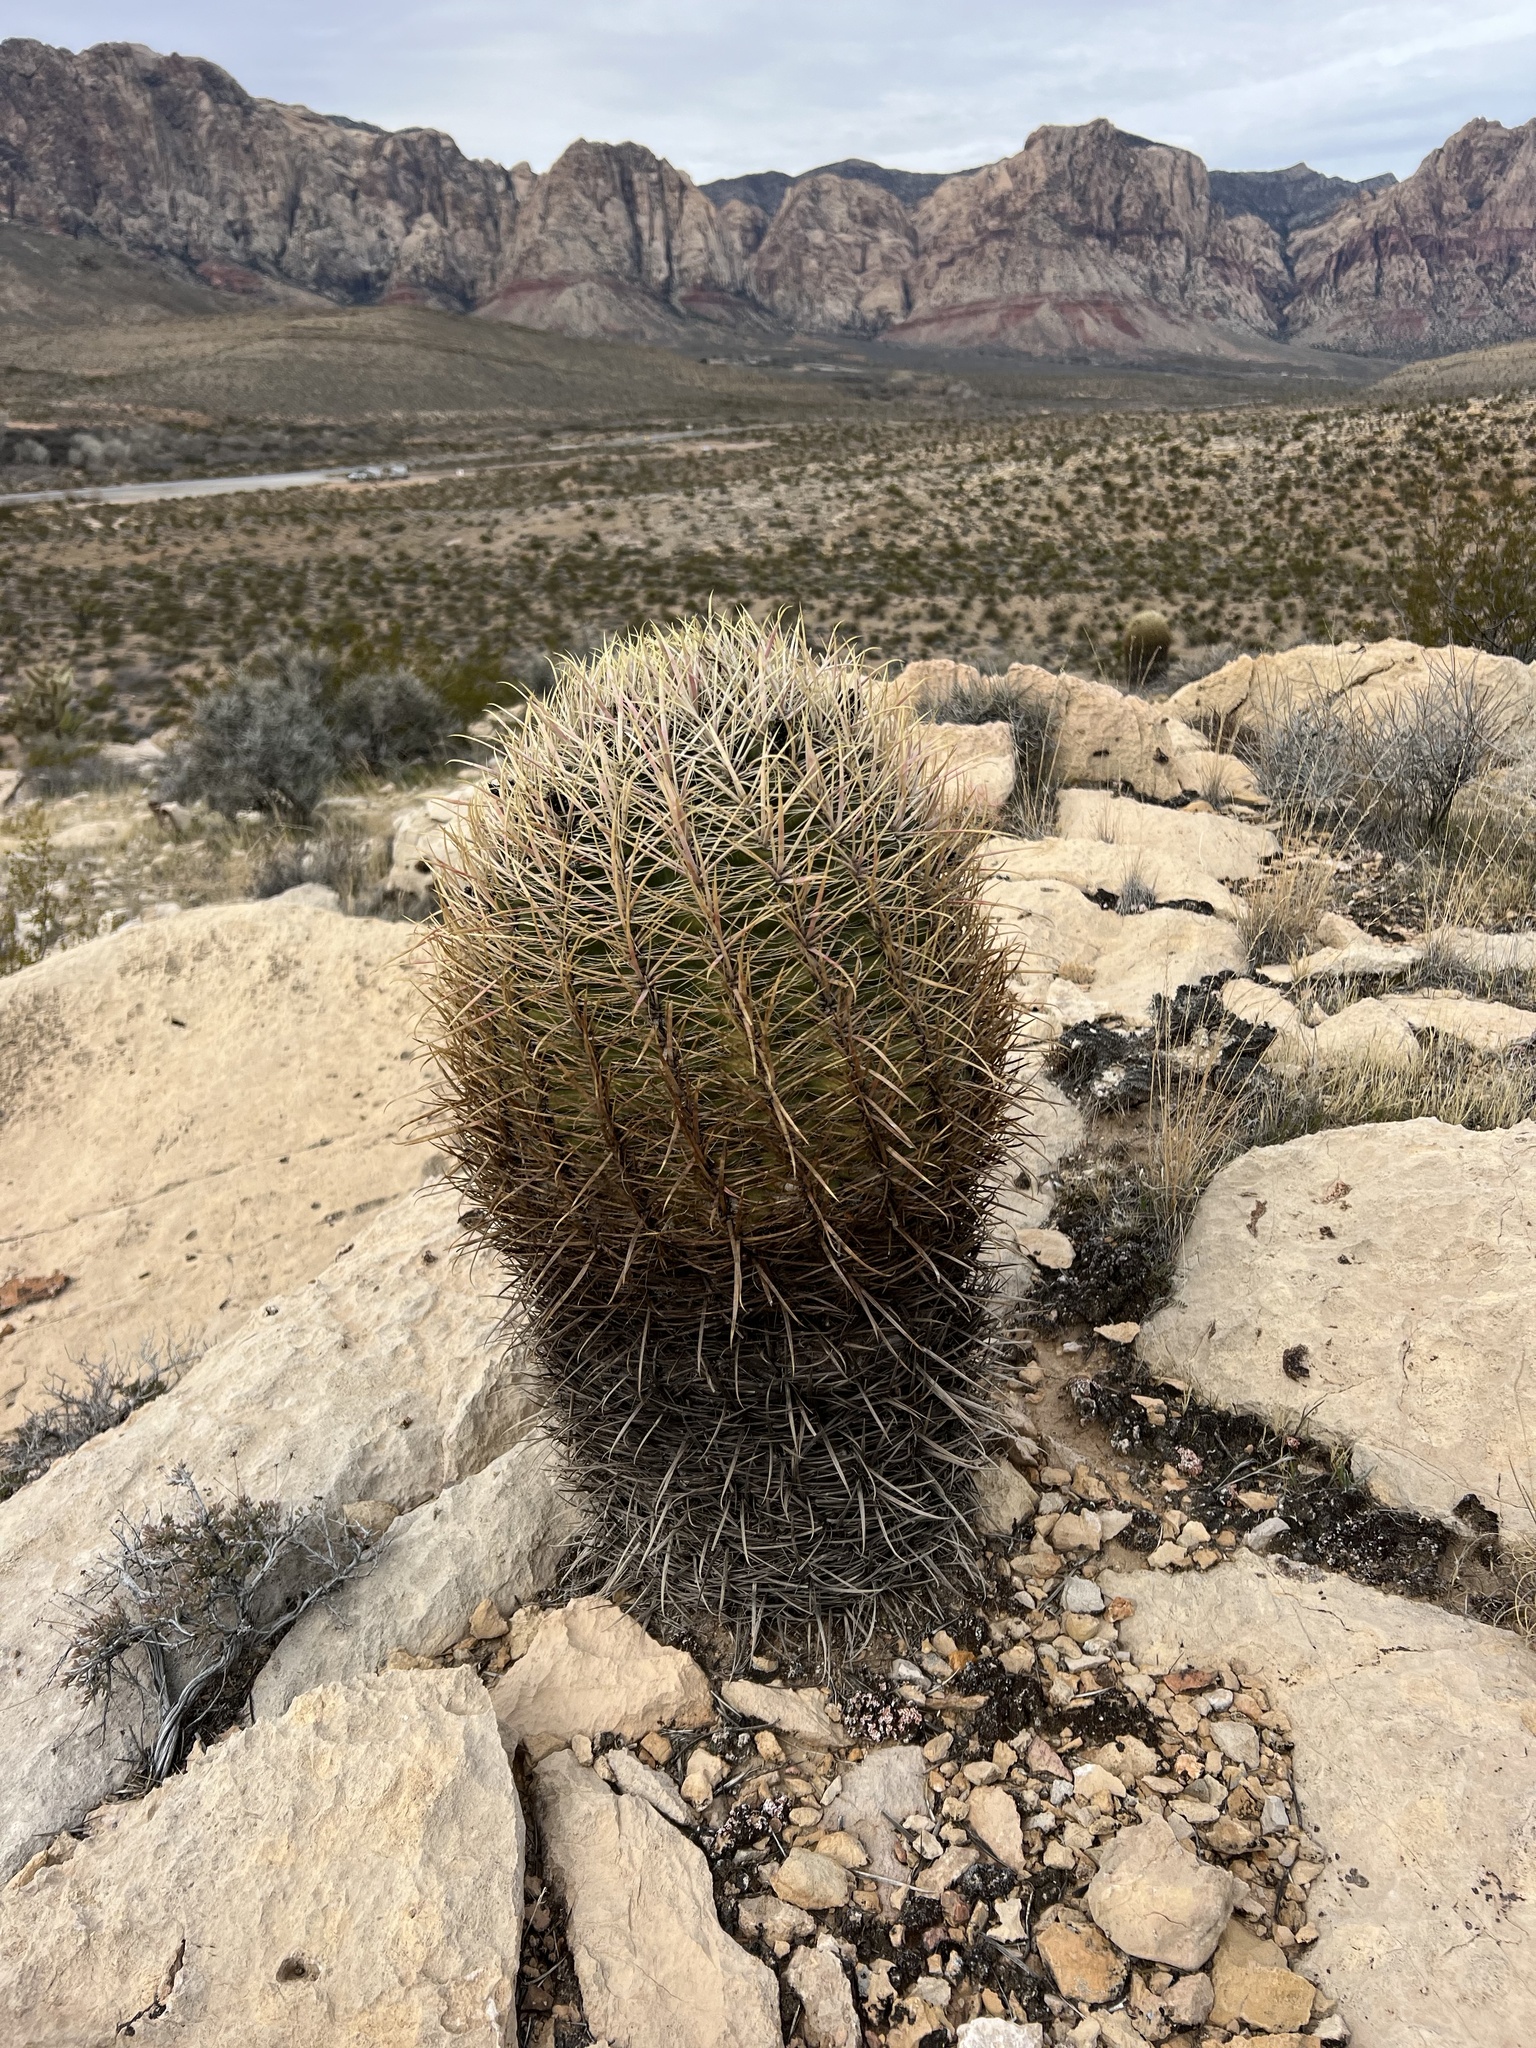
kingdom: Plantae
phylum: Tracheophyta
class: Magnoliopsida
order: Caryophyllales
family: Cactaceae
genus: Ferocactus
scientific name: Ferocactus cylindraceus
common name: California barrel cactus
